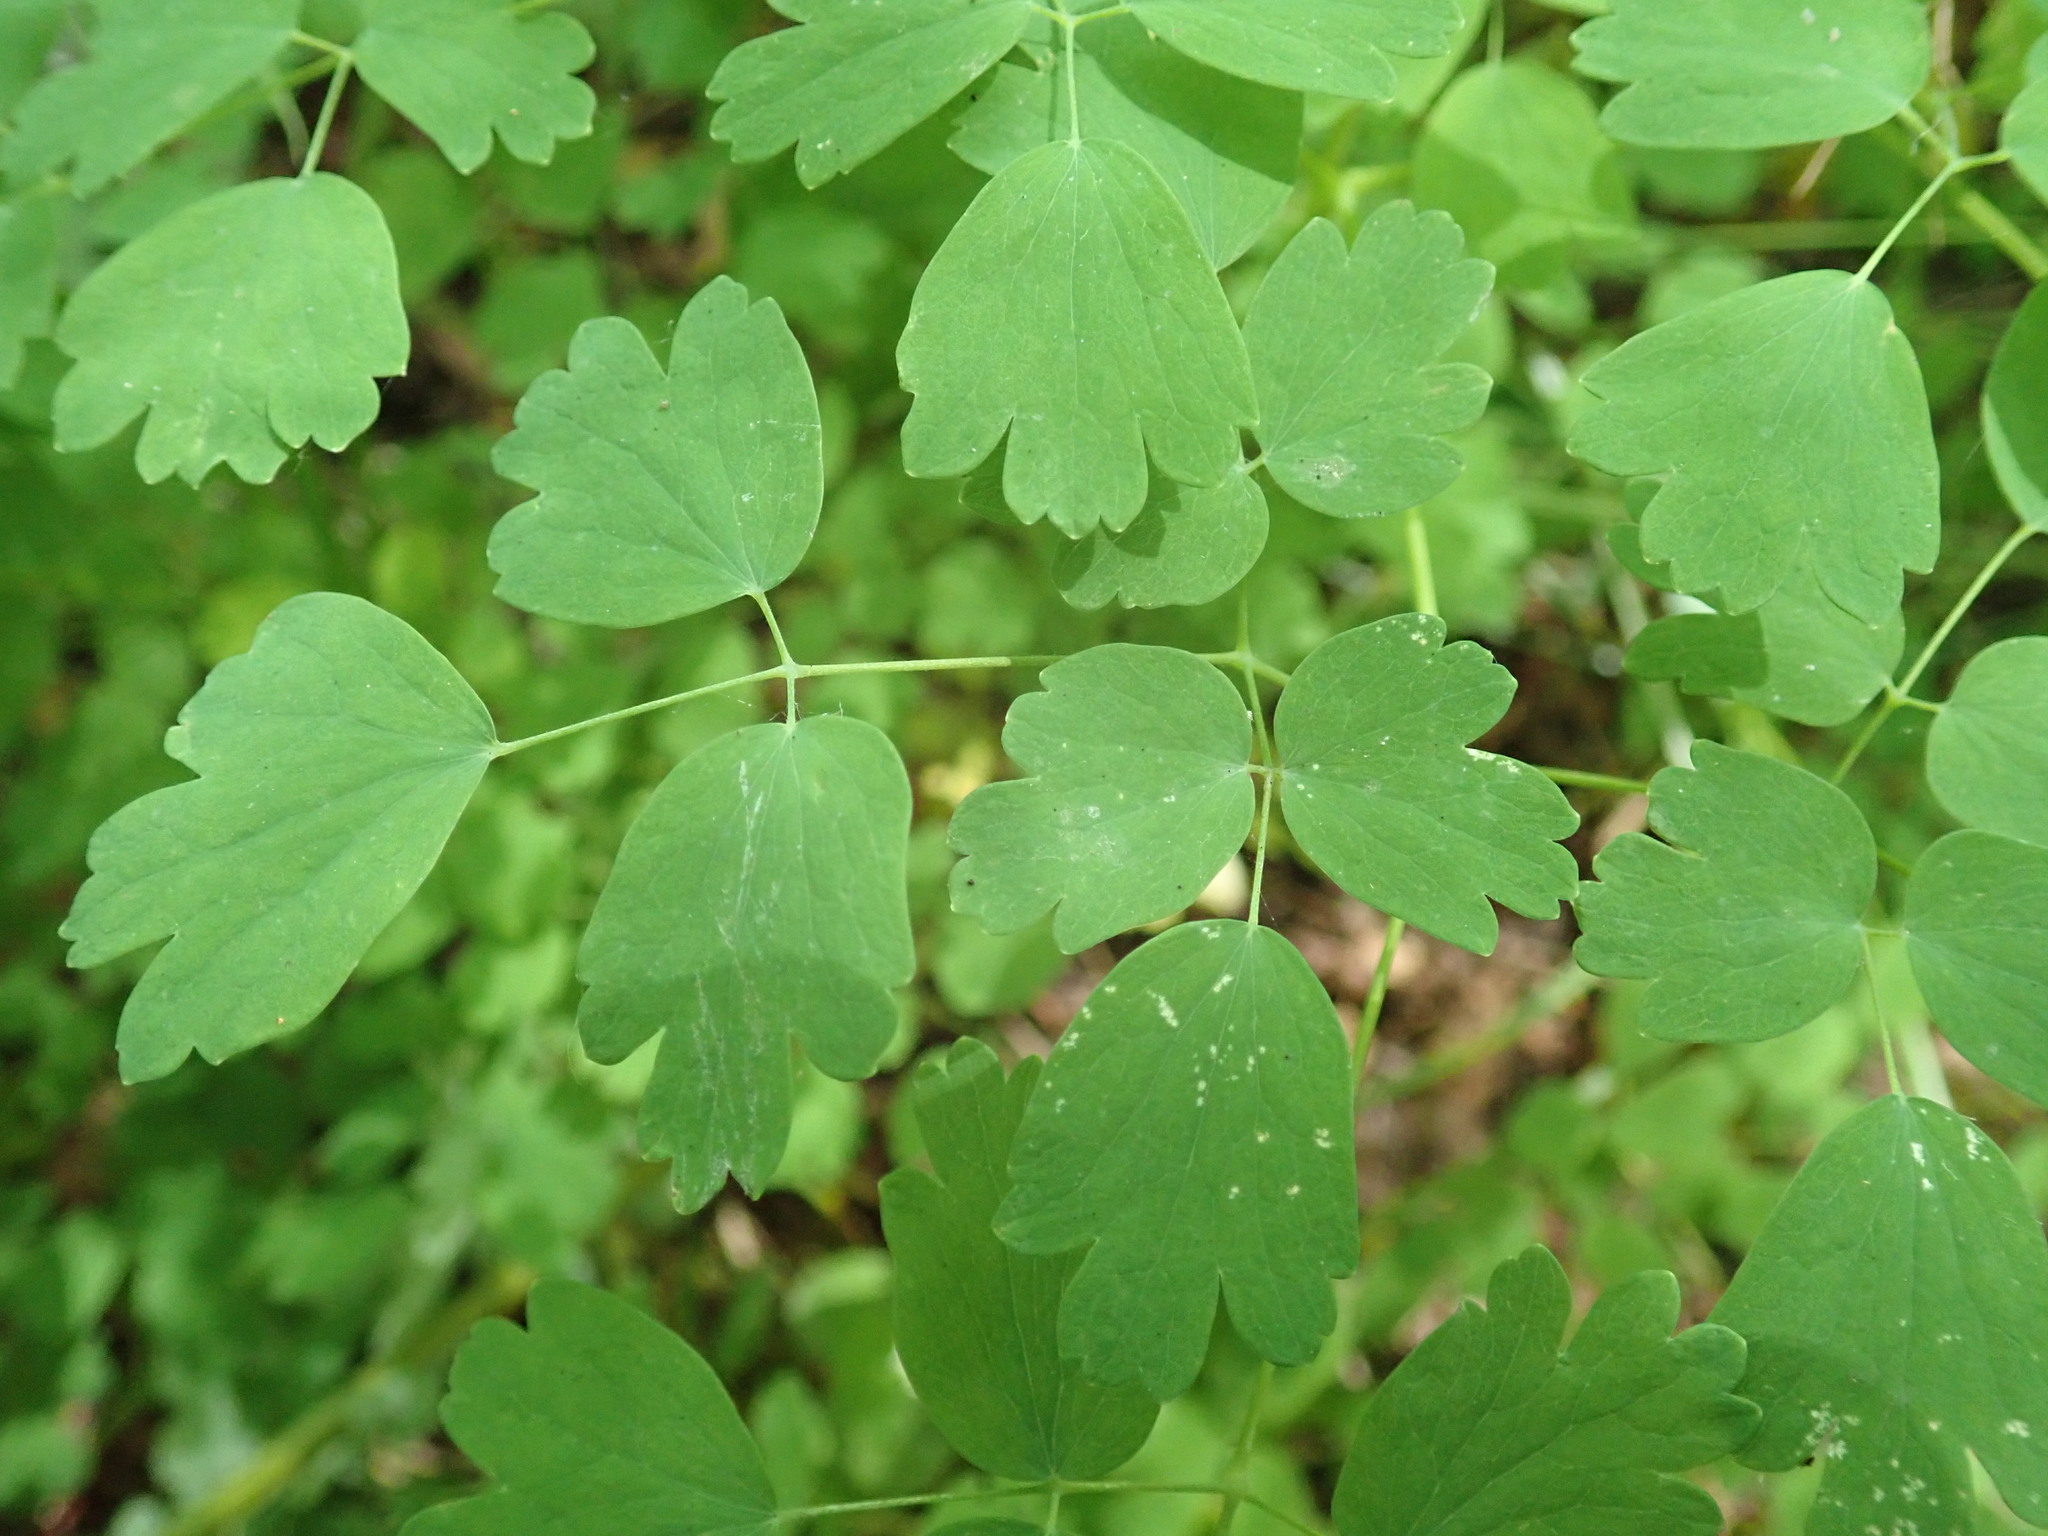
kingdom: Plantae
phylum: Tracheophyta
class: Magnoliopsida
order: Ranunculales
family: Ranunculaceae
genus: Thalictrum
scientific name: Thalictrum occidentale
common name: Western meadow-rue
